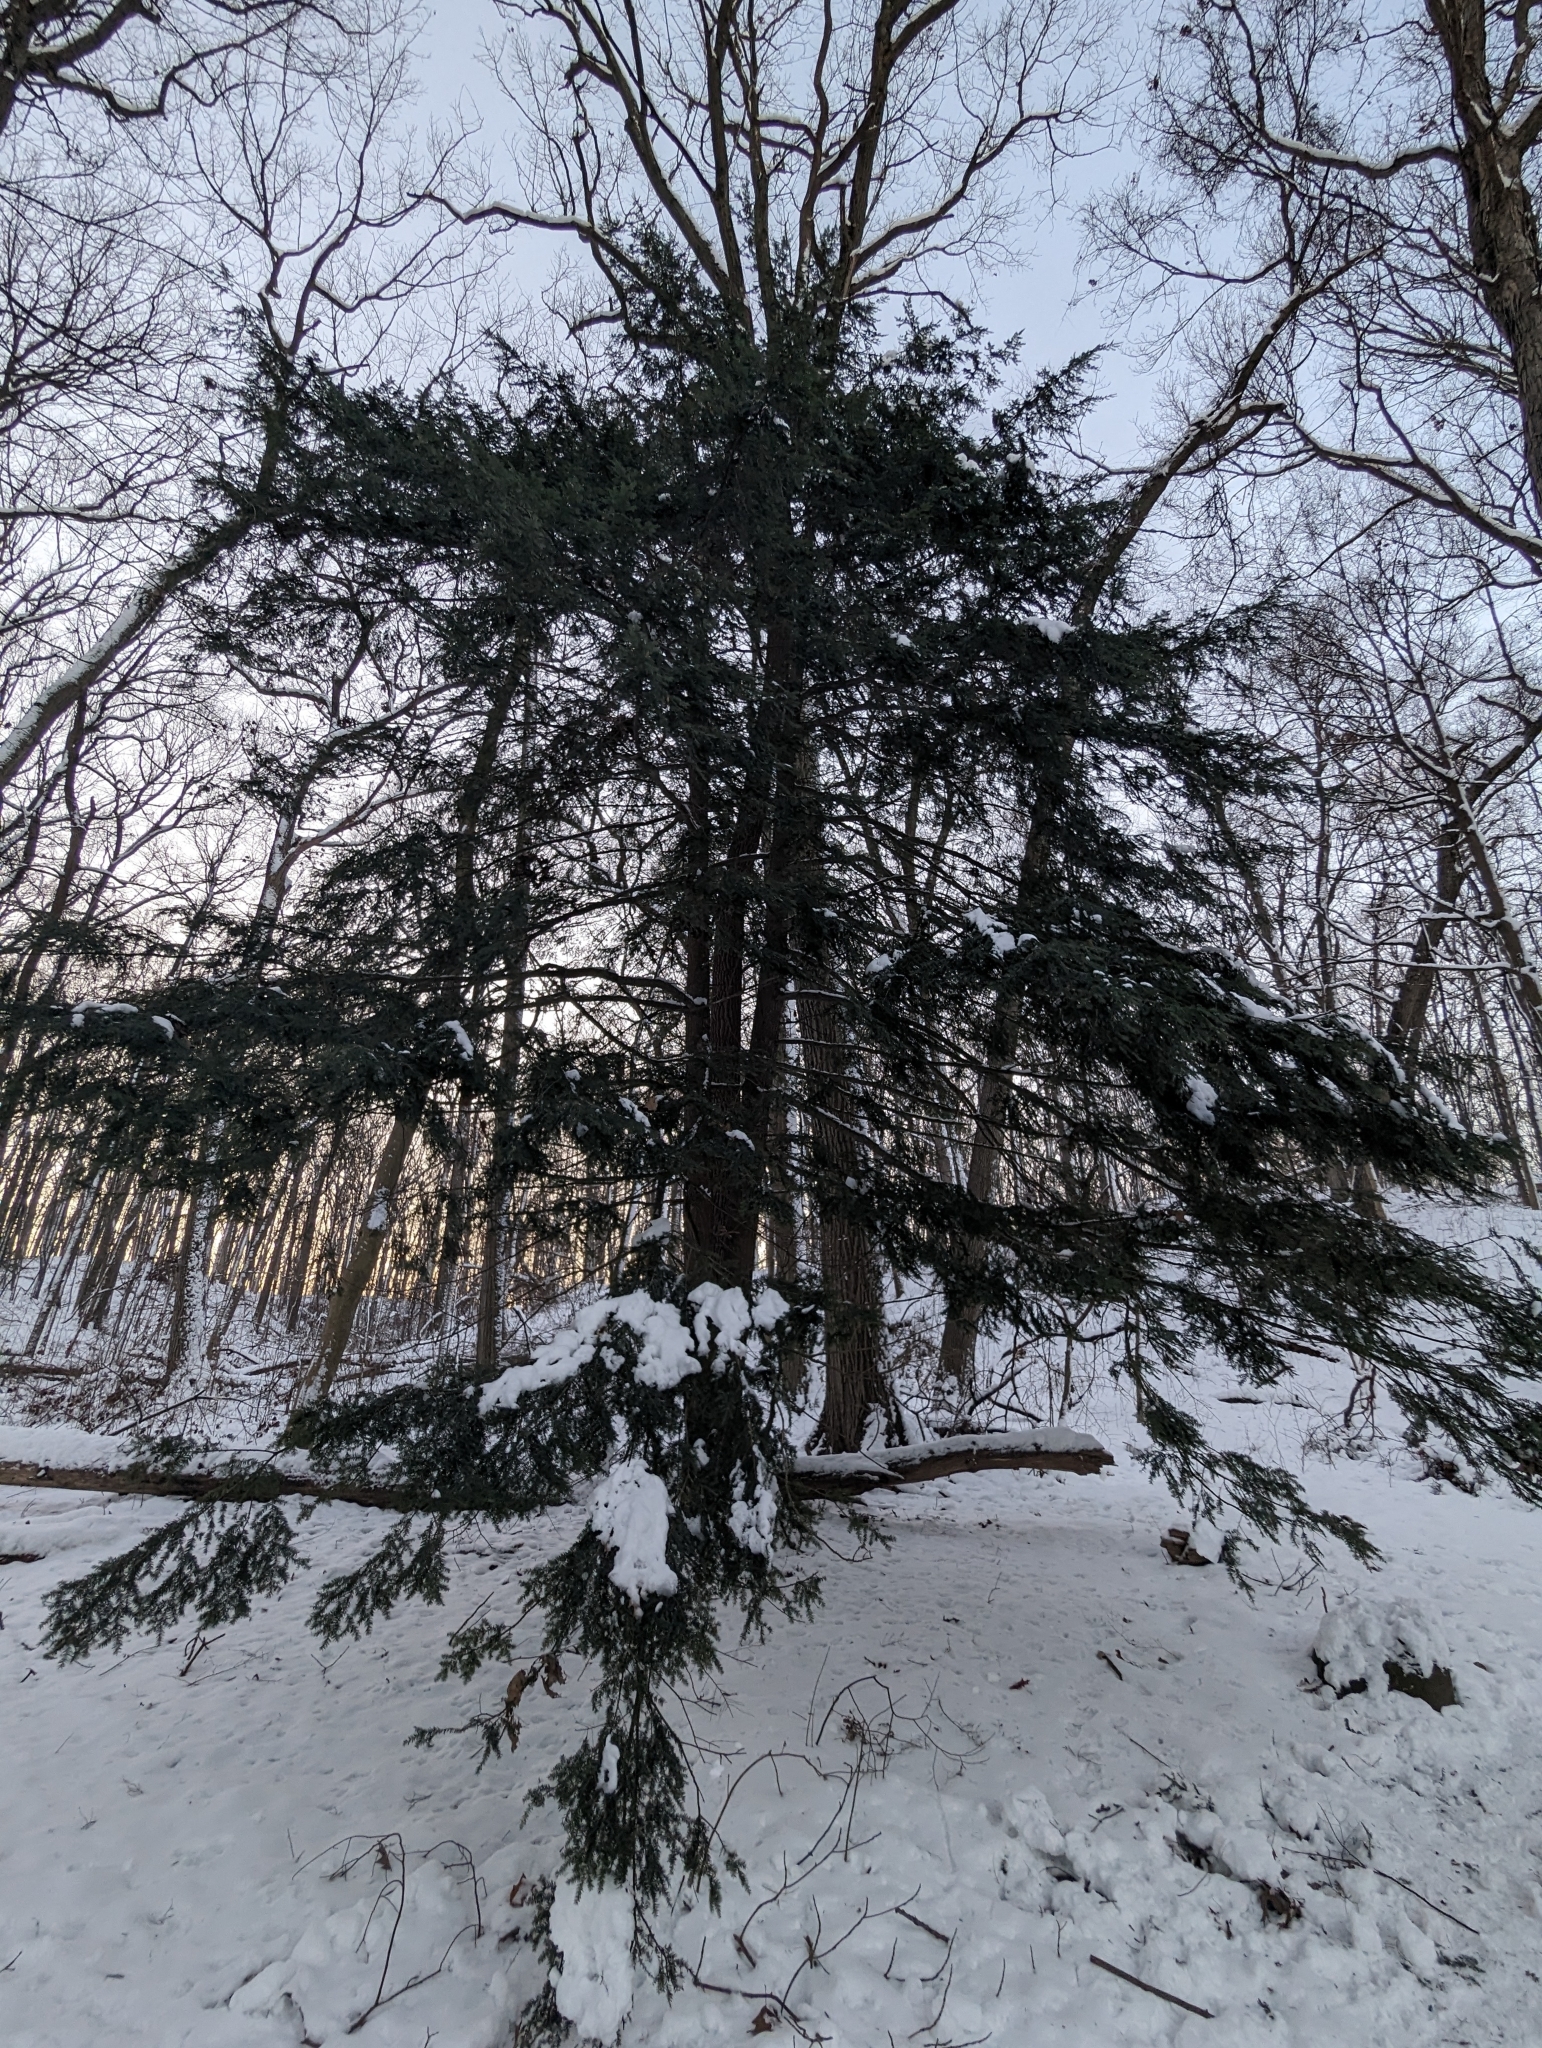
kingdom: Plantae
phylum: Tracheophyta
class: Pinopsida
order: Pinales
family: Pinaceae
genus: Tsuga
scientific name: Tsuga canadensis
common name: Eastern hemlock
